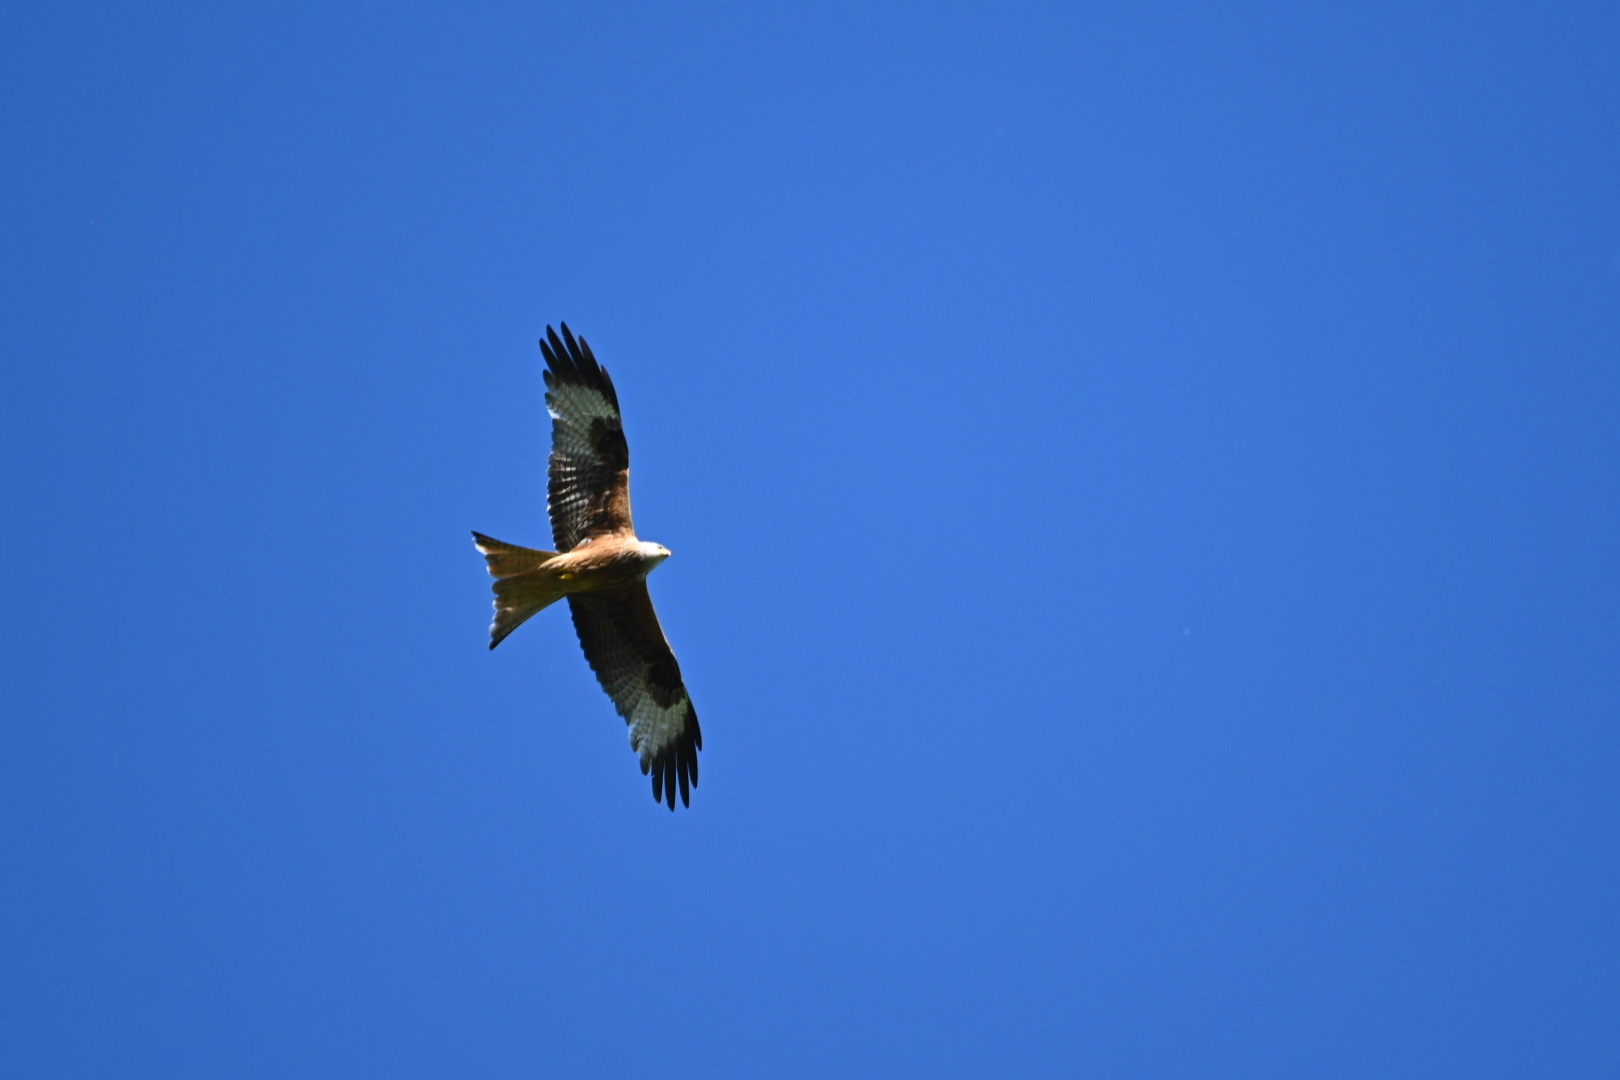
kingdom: Animalia
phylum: Chordata
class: Aves
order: Accipitriformes
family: Accipitridae
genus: Milvus
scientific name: Milvus milvus
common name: Red kite
